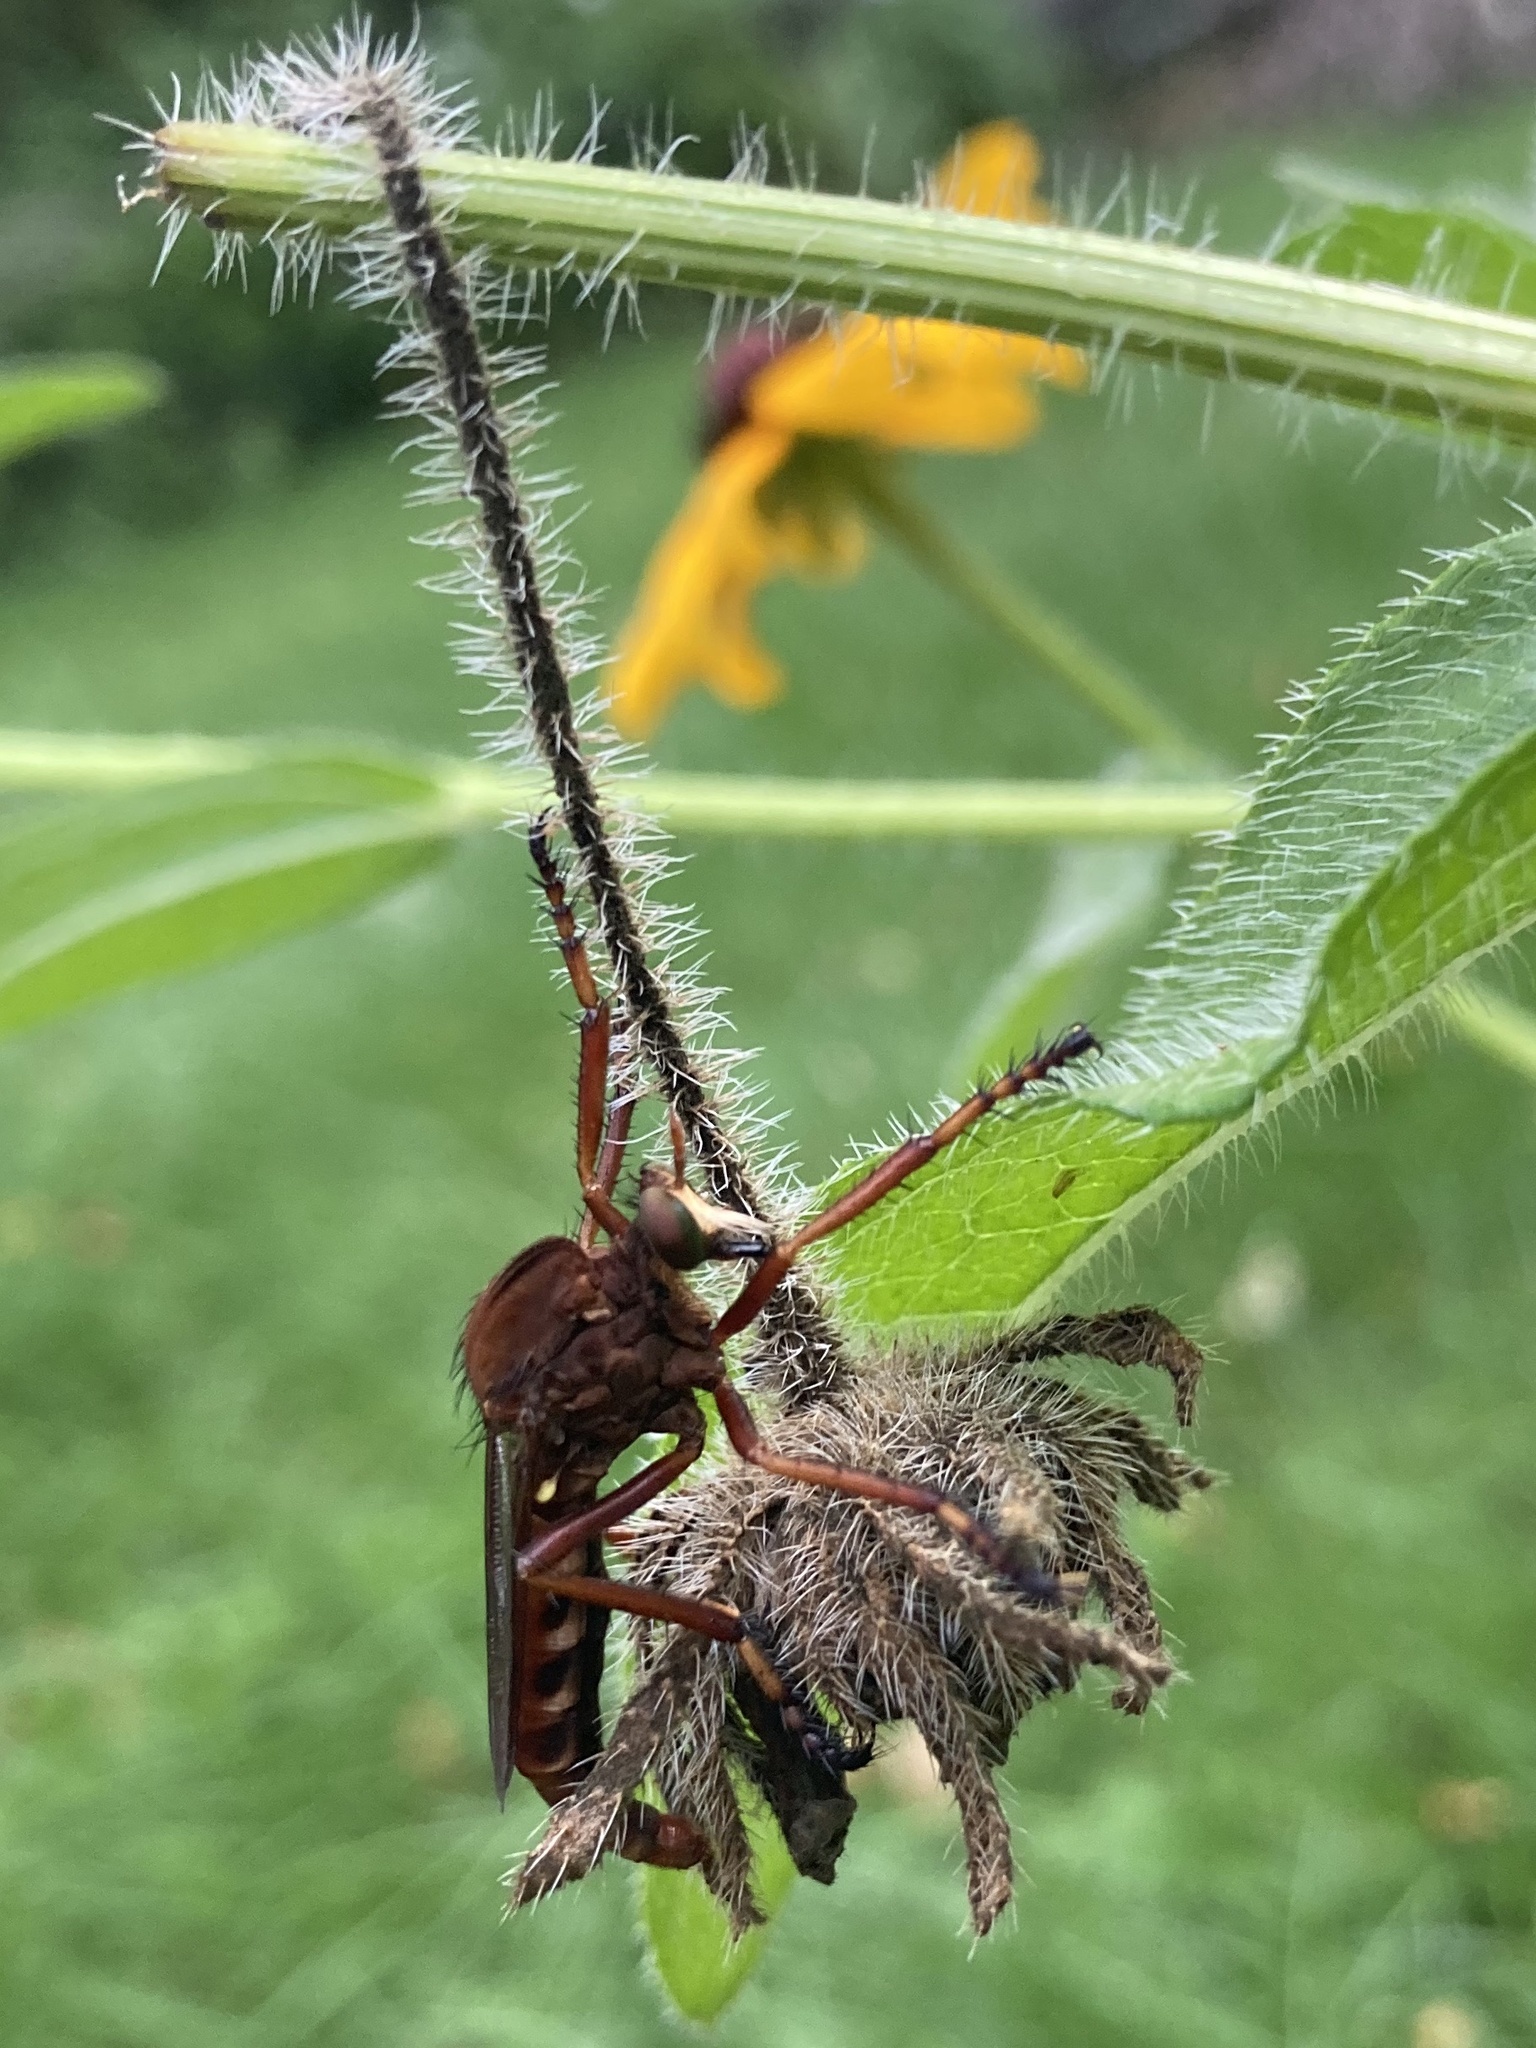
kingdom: Animalia
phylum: Arthropoda
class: Insecta
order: Diptera
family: Asilidae
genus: Diogmites
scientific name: Diogmites basalis
